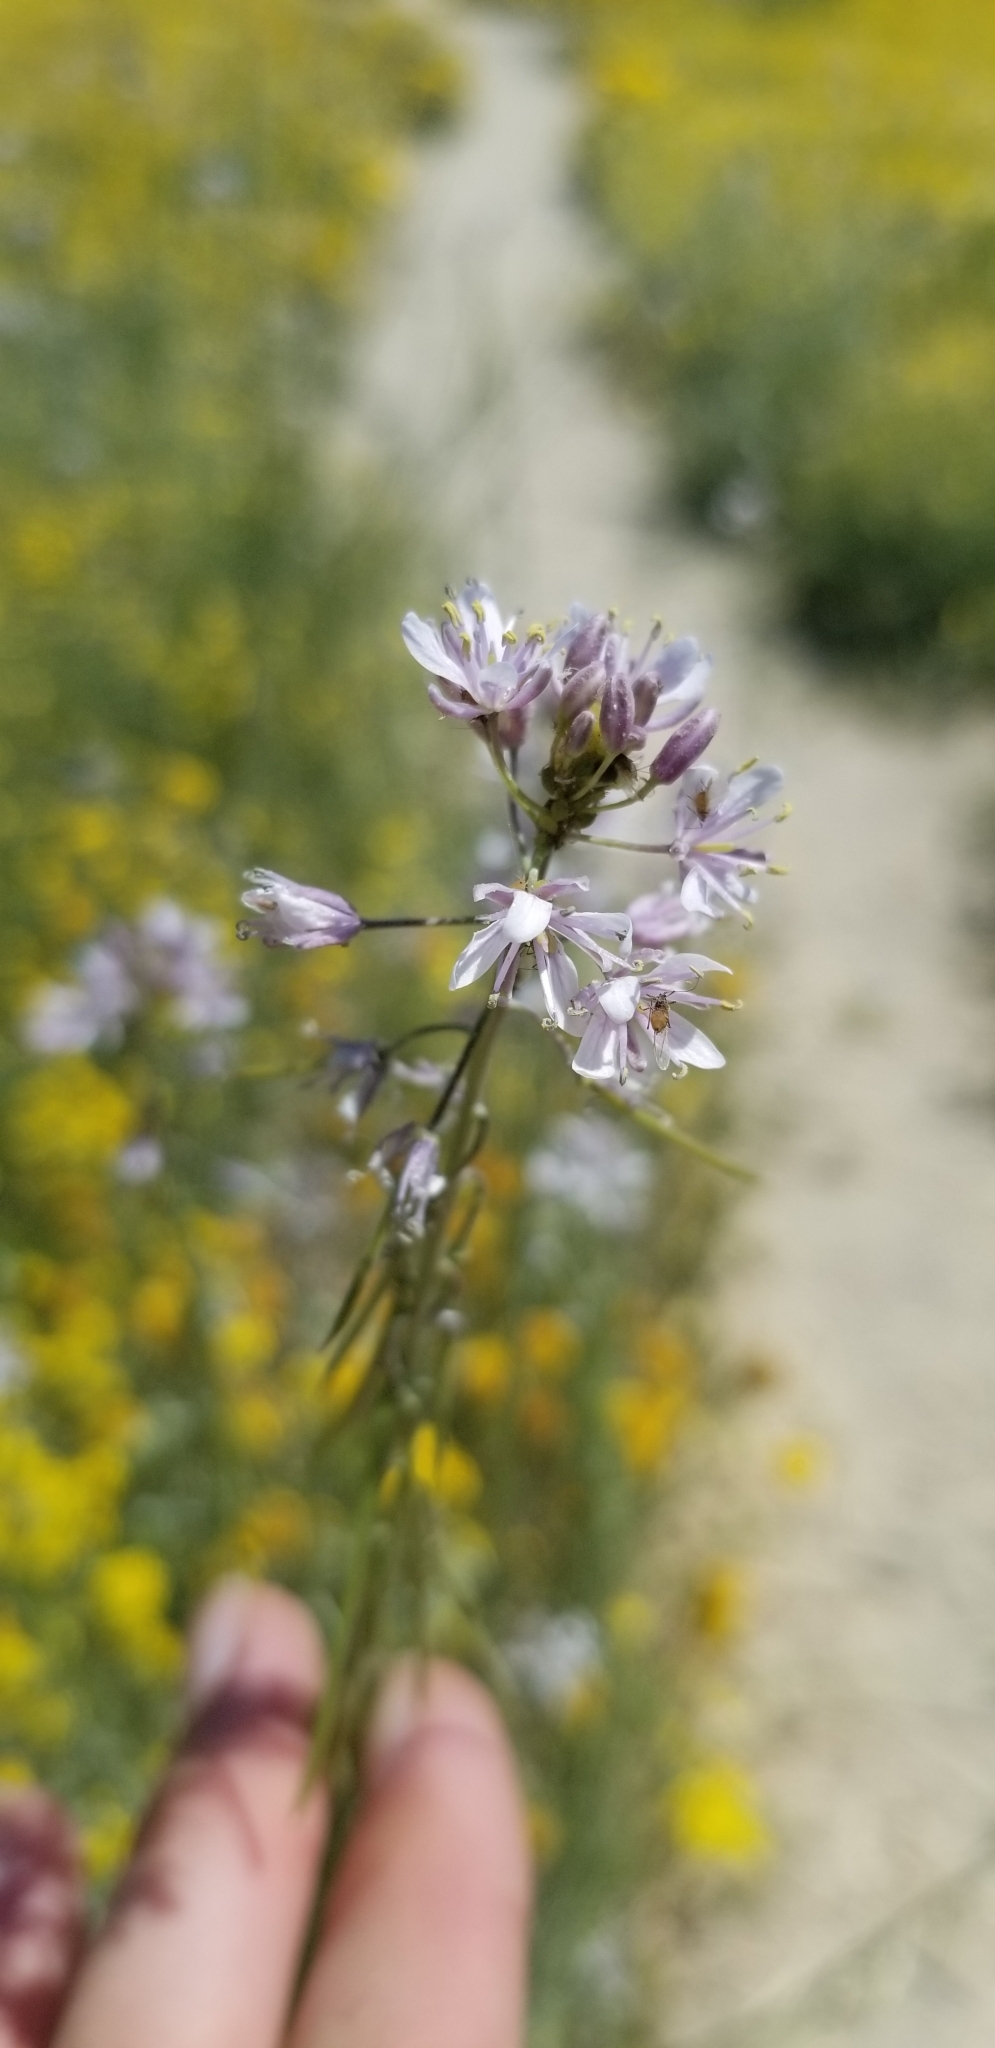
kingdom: Plantae
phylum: Tracheophyta
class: Magnoliopsida
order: Brassicales
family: Brassicaceae
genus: Streptanthus
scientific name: Streptanthus anceps
